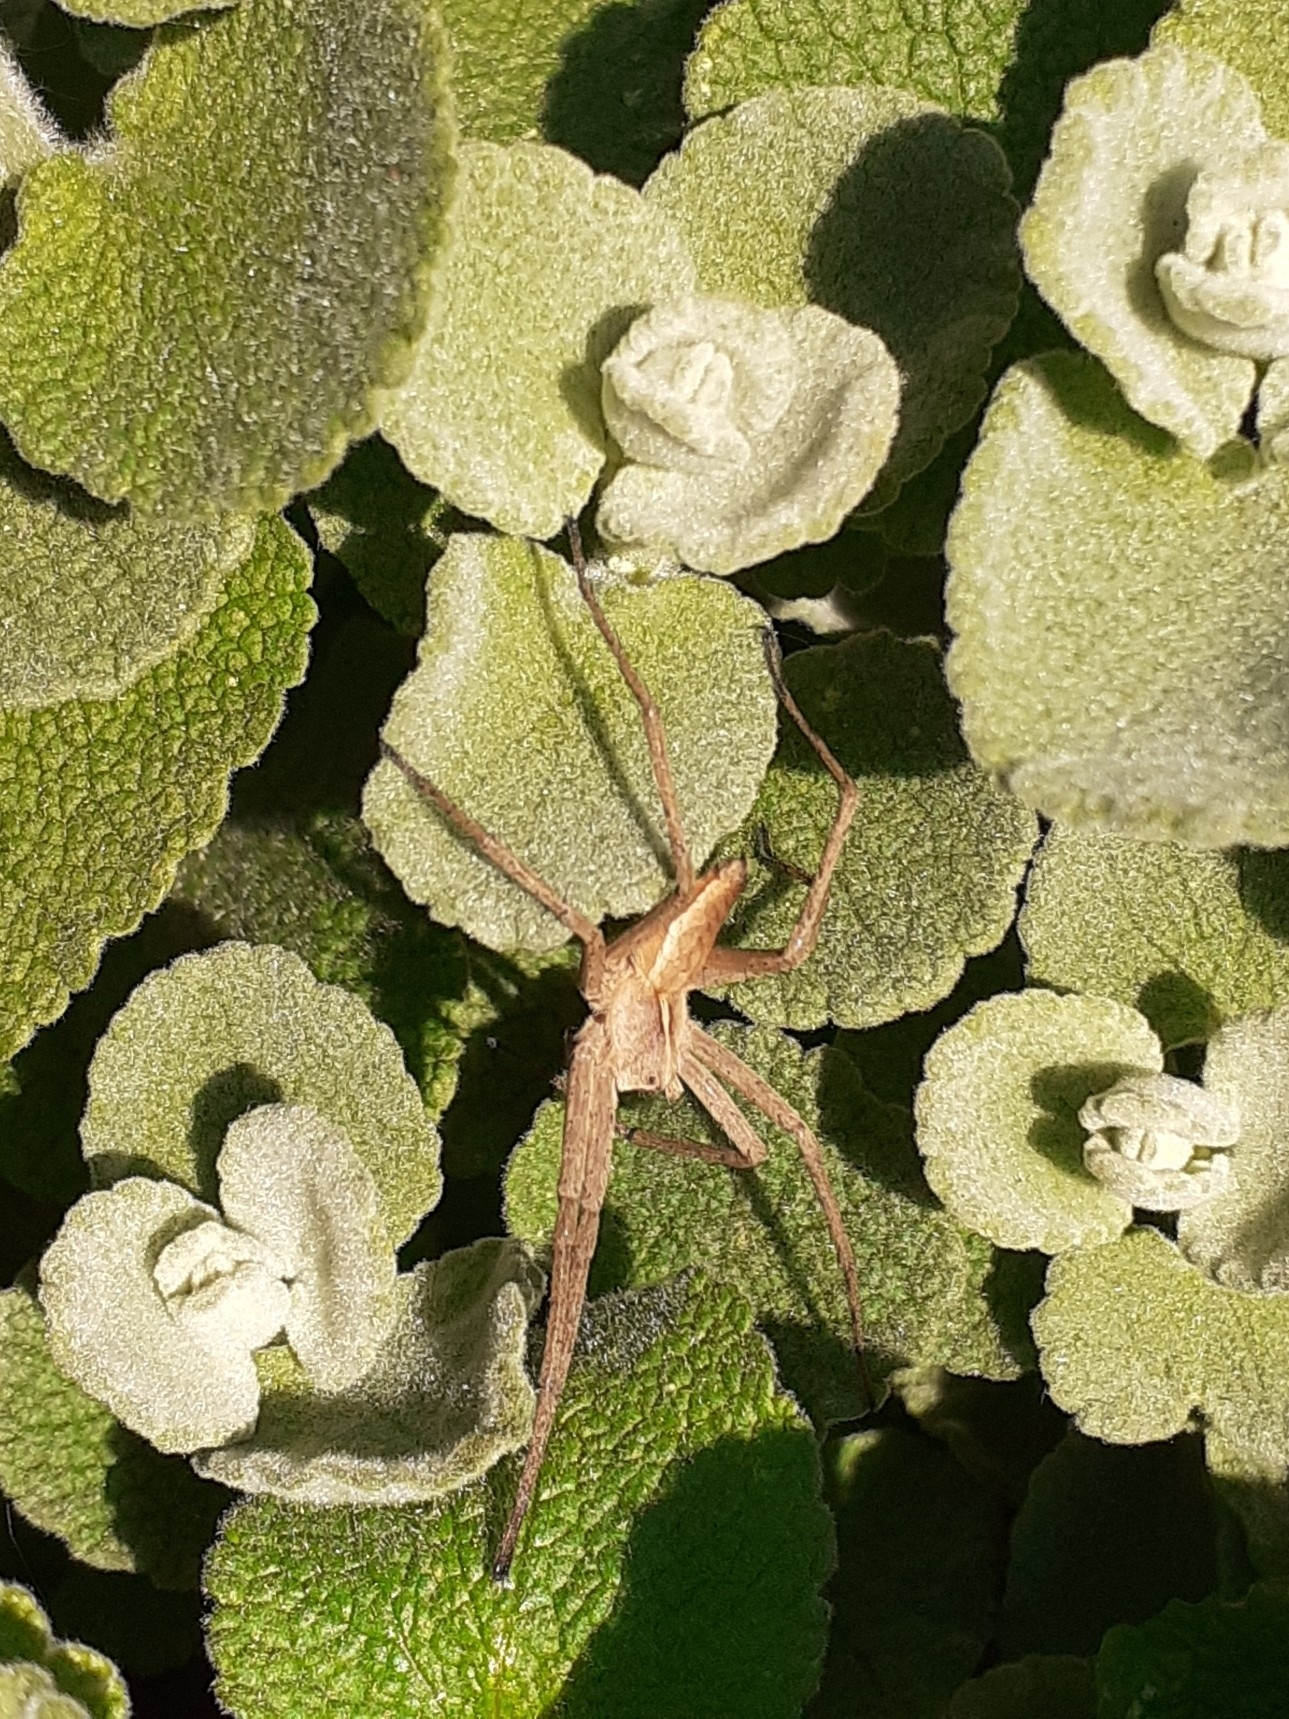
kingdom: Animalia
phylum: Arthropoda
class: Arachnida
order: Araneae
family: Pisauridae
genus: Pisaura
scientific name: Pisaura mirabilis
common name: Tent spider
